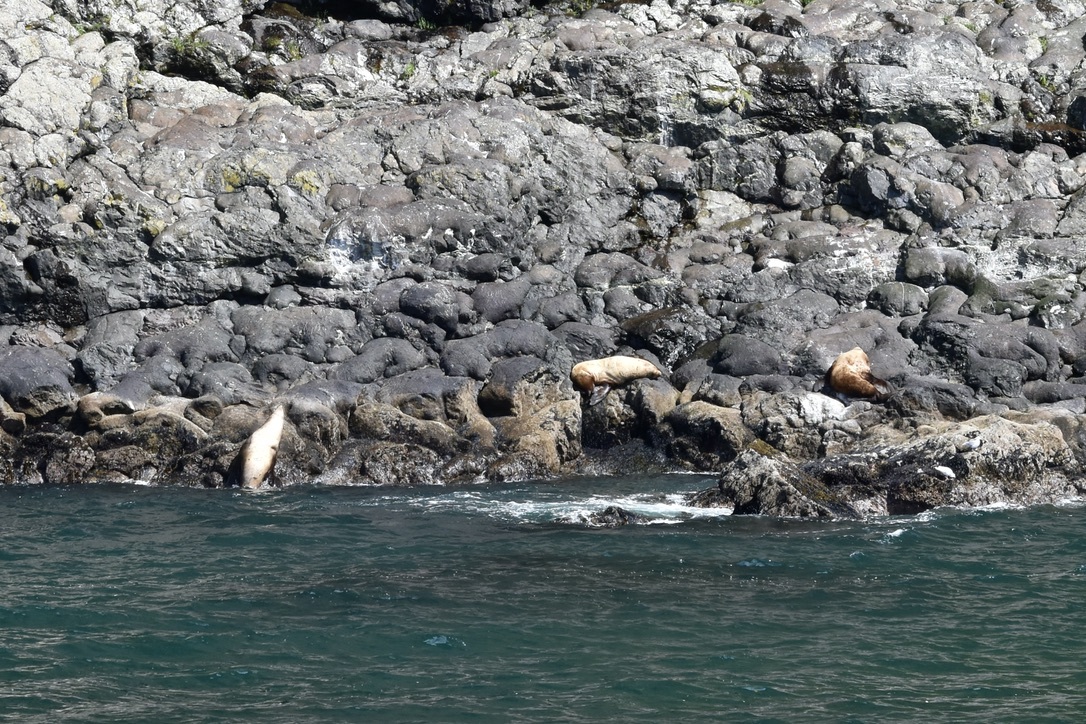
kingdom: Animalia
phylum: Chordata
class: Mammalia
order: Carnivora
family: Otariidae
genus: Eumetopias
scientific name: Eumetopias jubatus
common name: Steller sea lion
